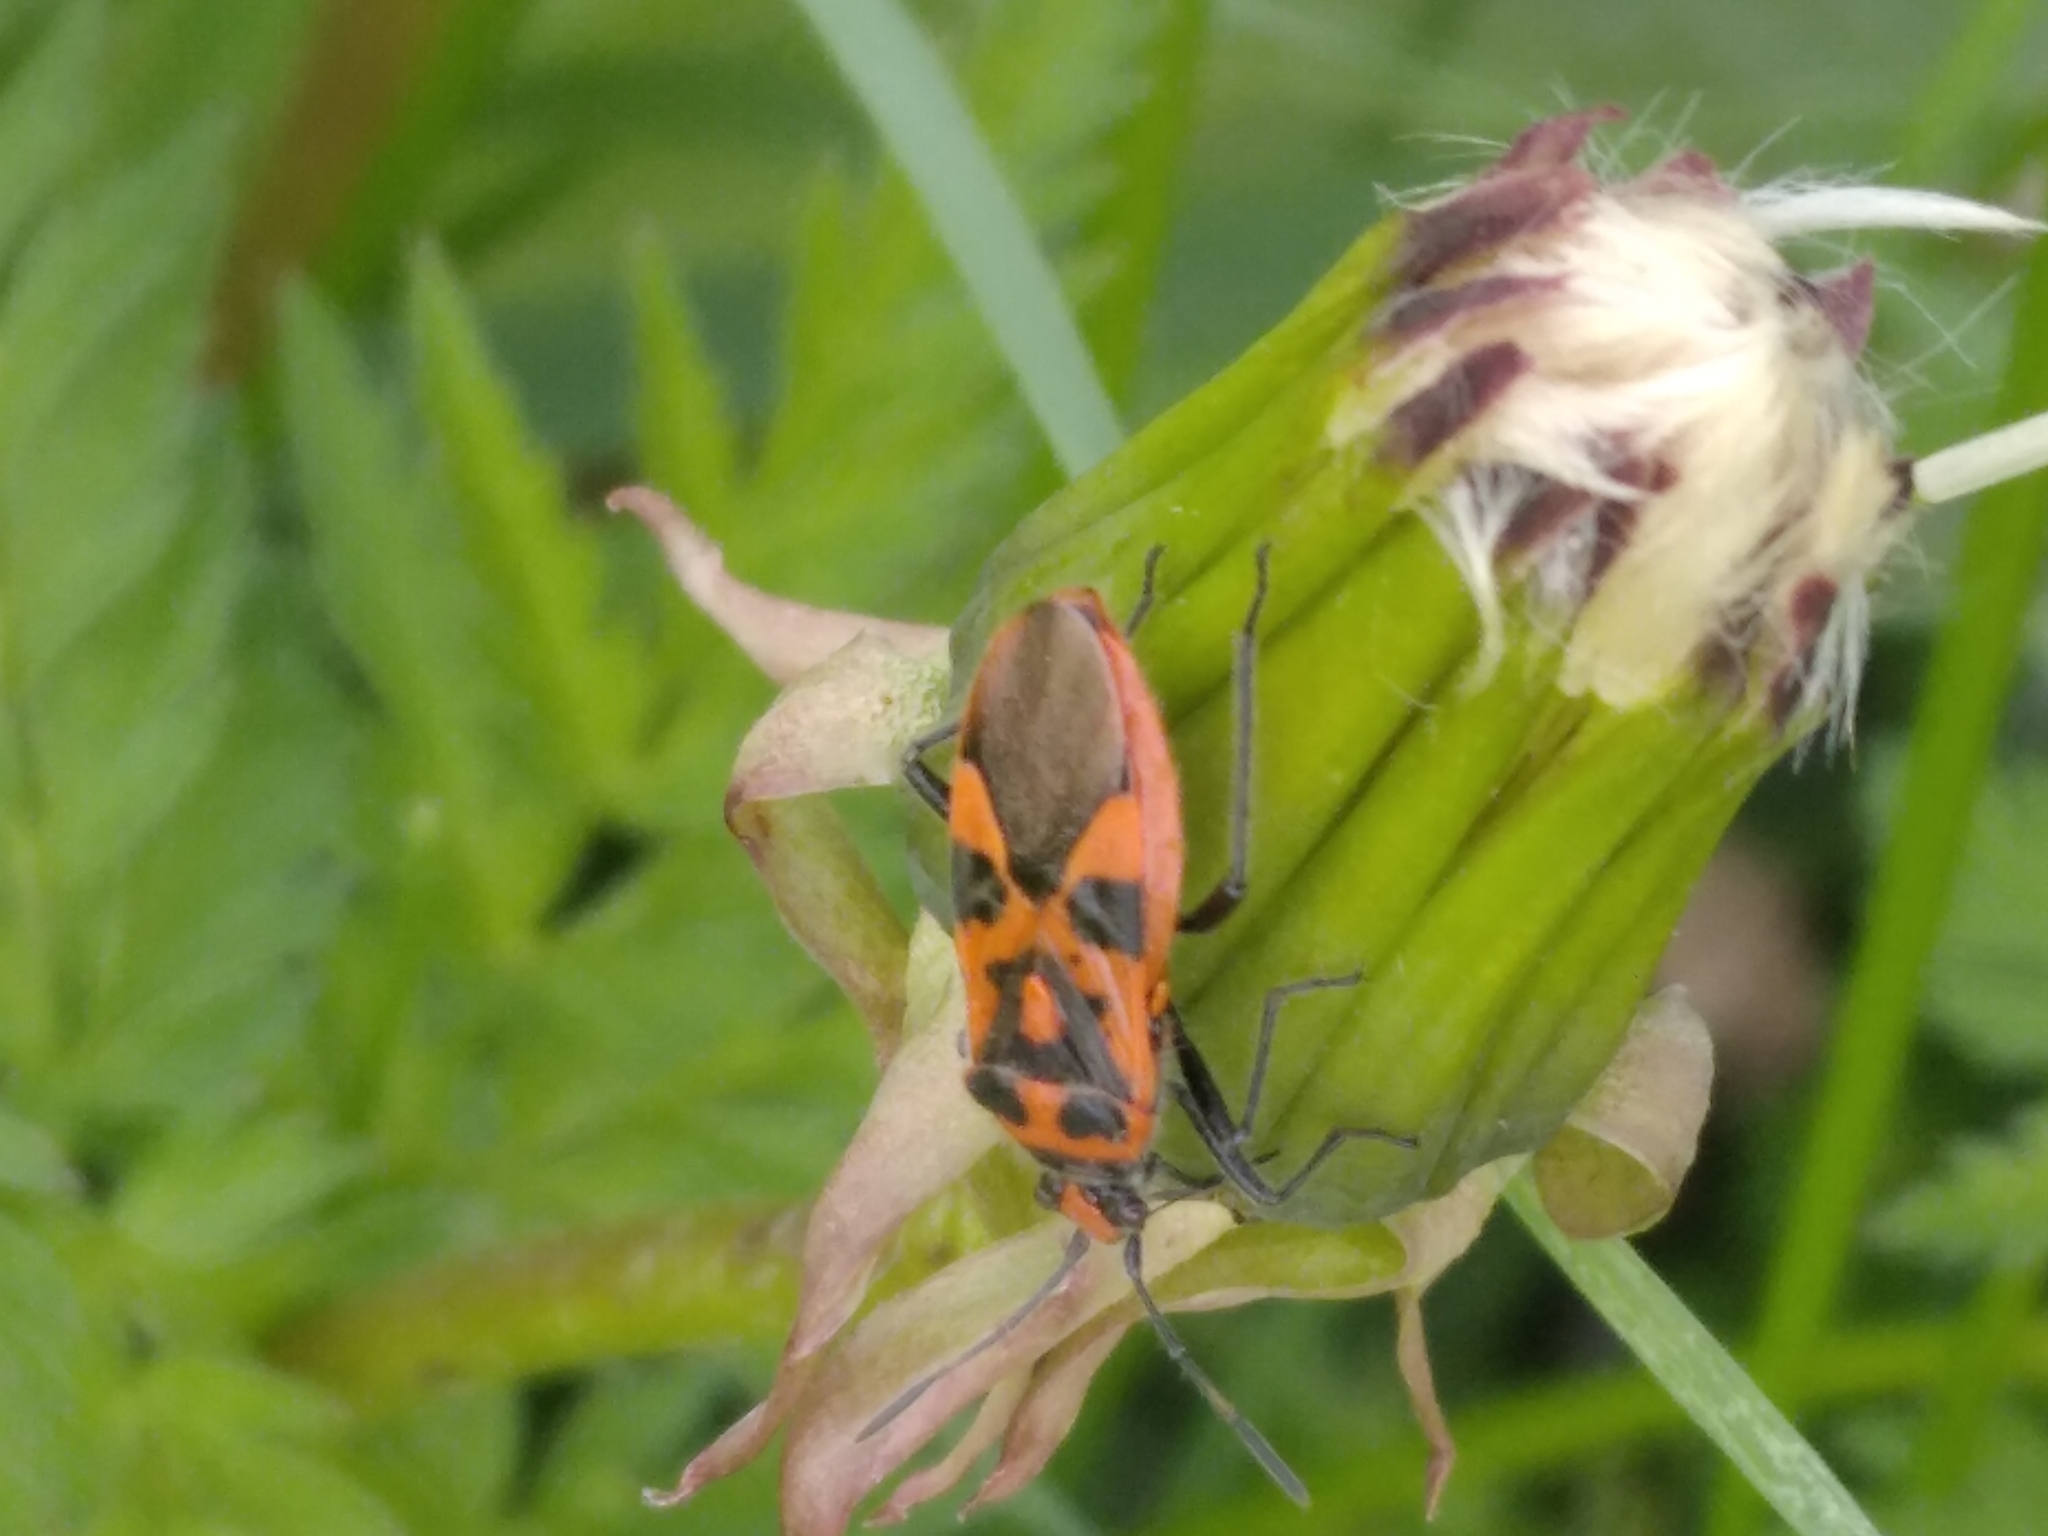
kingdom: Animalia
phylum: Arthropoda
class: Insecta
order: Hemiptera
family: Rhopalidae
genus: Corizus
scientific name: Corizus hyoscyami
